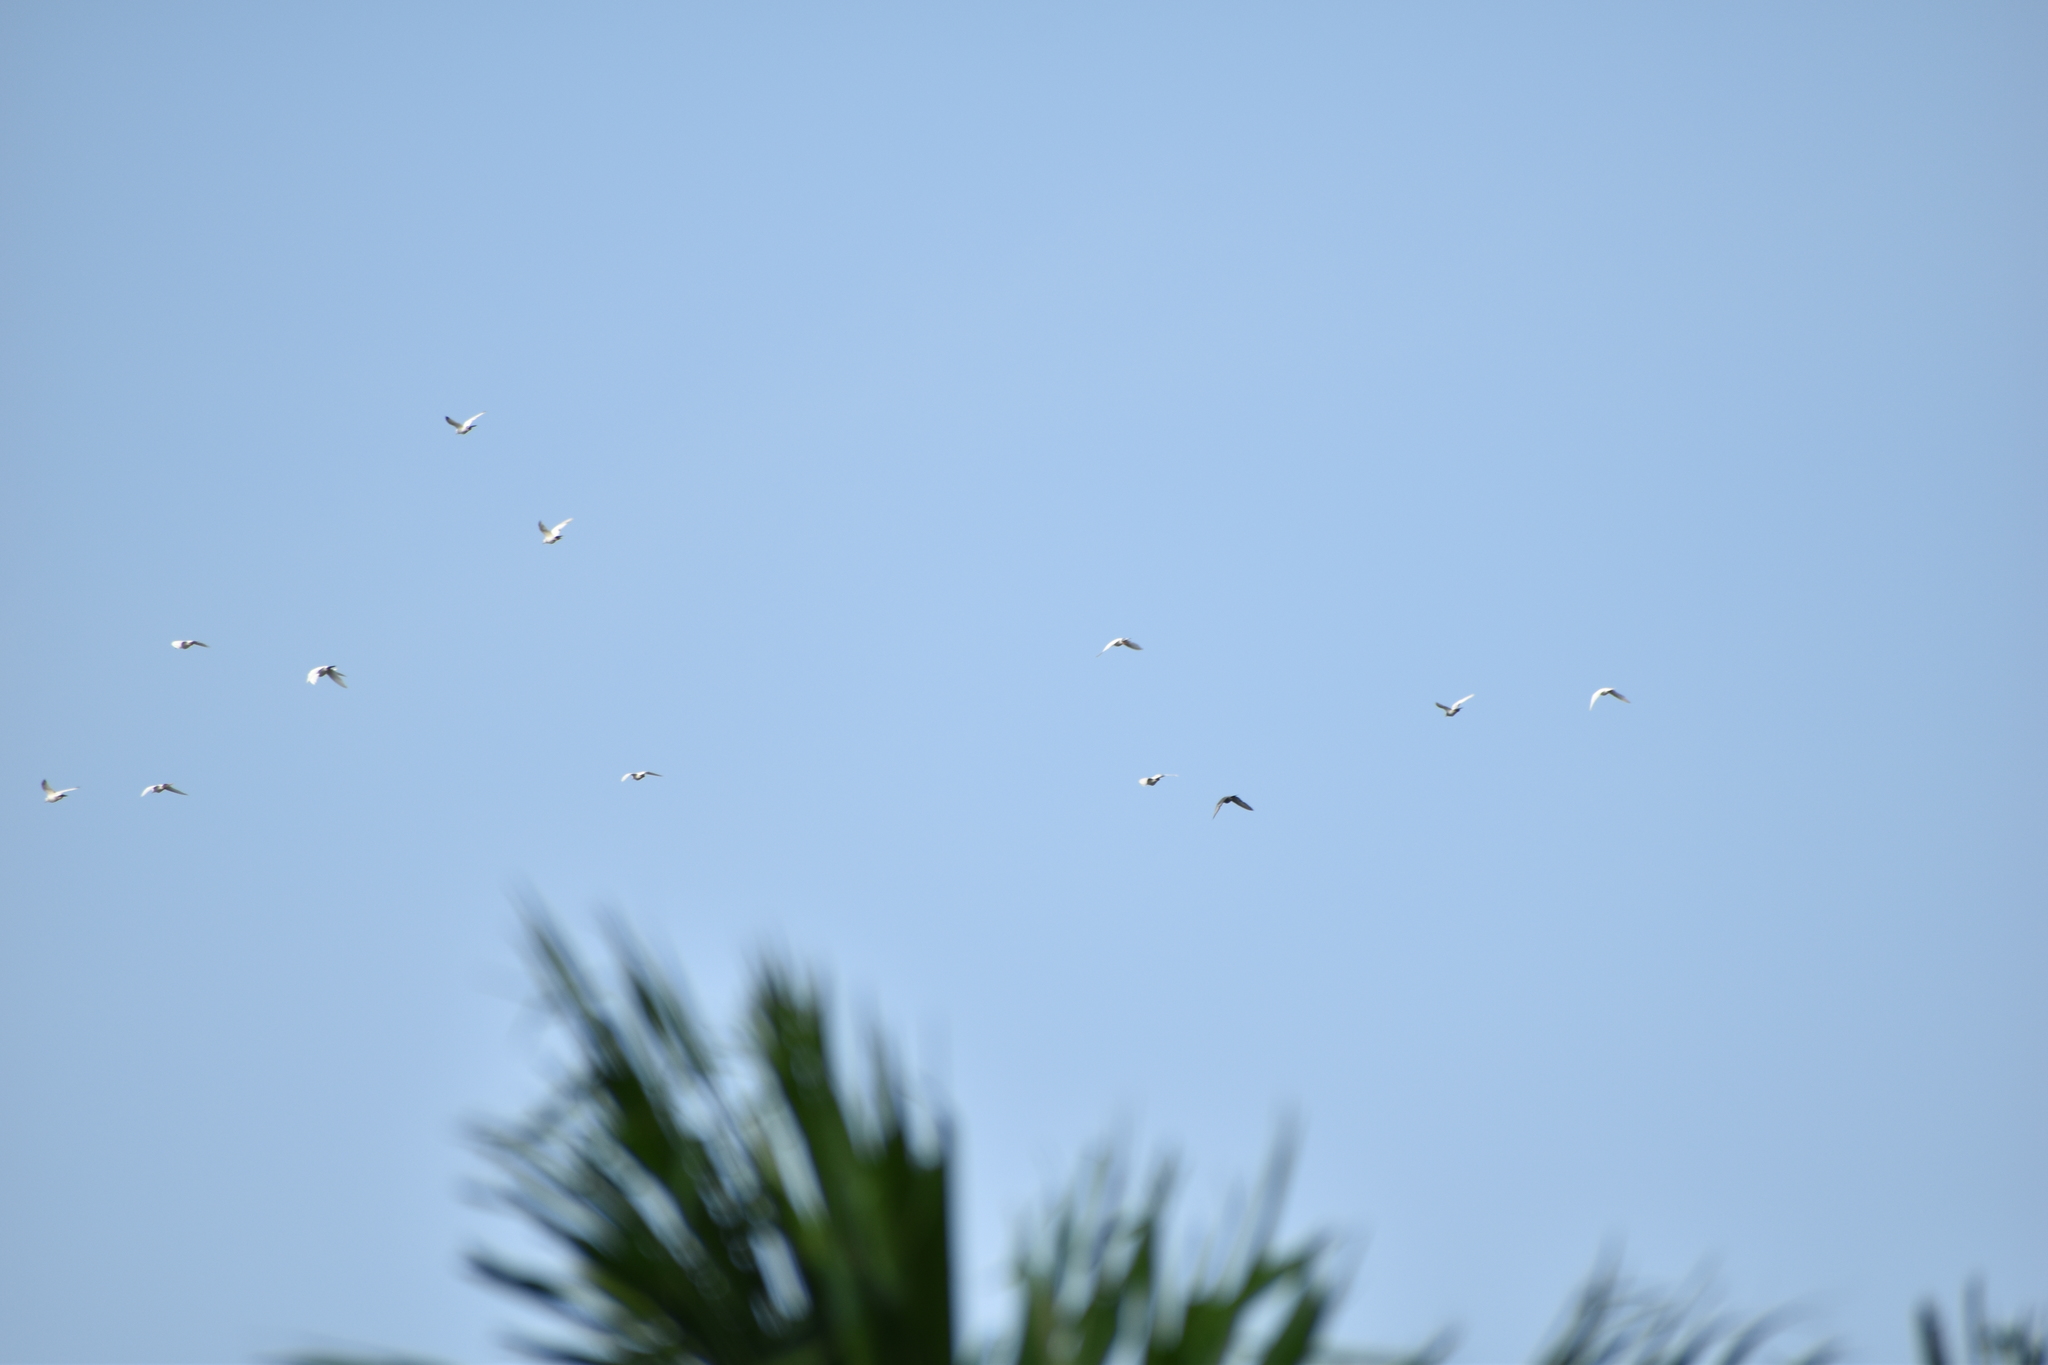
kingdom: Animalia
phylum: Chordata
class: Aves
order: Columbiformes
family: Columbidae
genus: Columba
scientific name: Columba livia
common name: Rock pigeon
